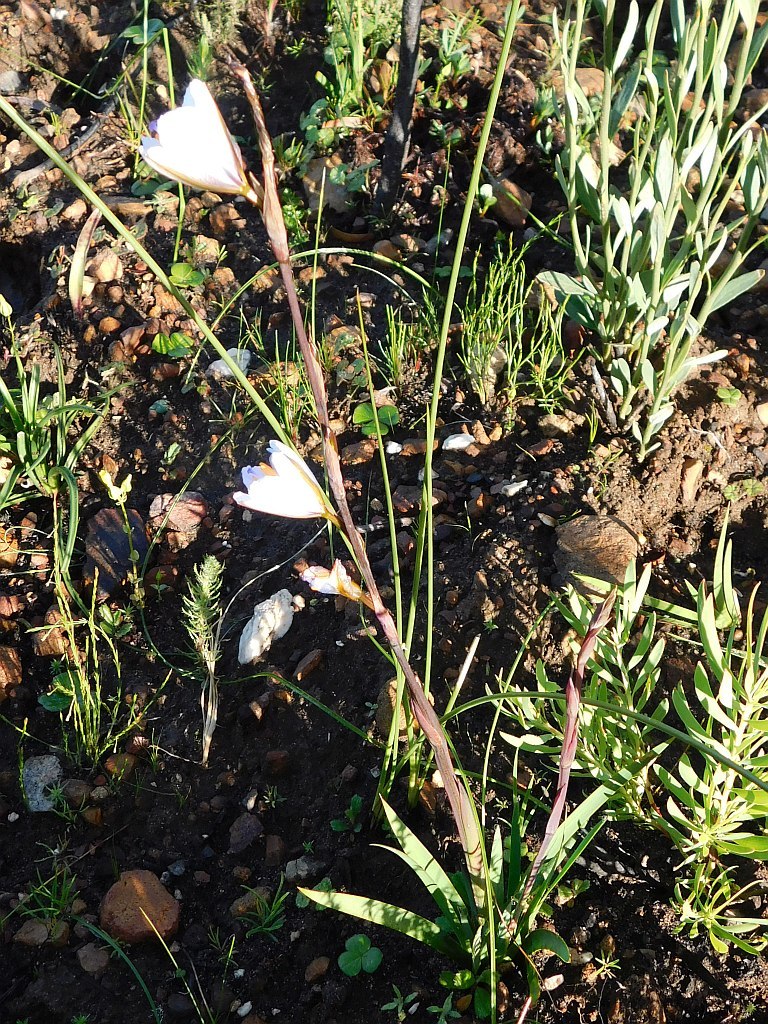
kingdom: Plantae
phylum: Tracheophyta
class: Liliopsida
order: Asparagales
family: Iridaceae
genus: Aristea
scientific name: Aristea spiralis
